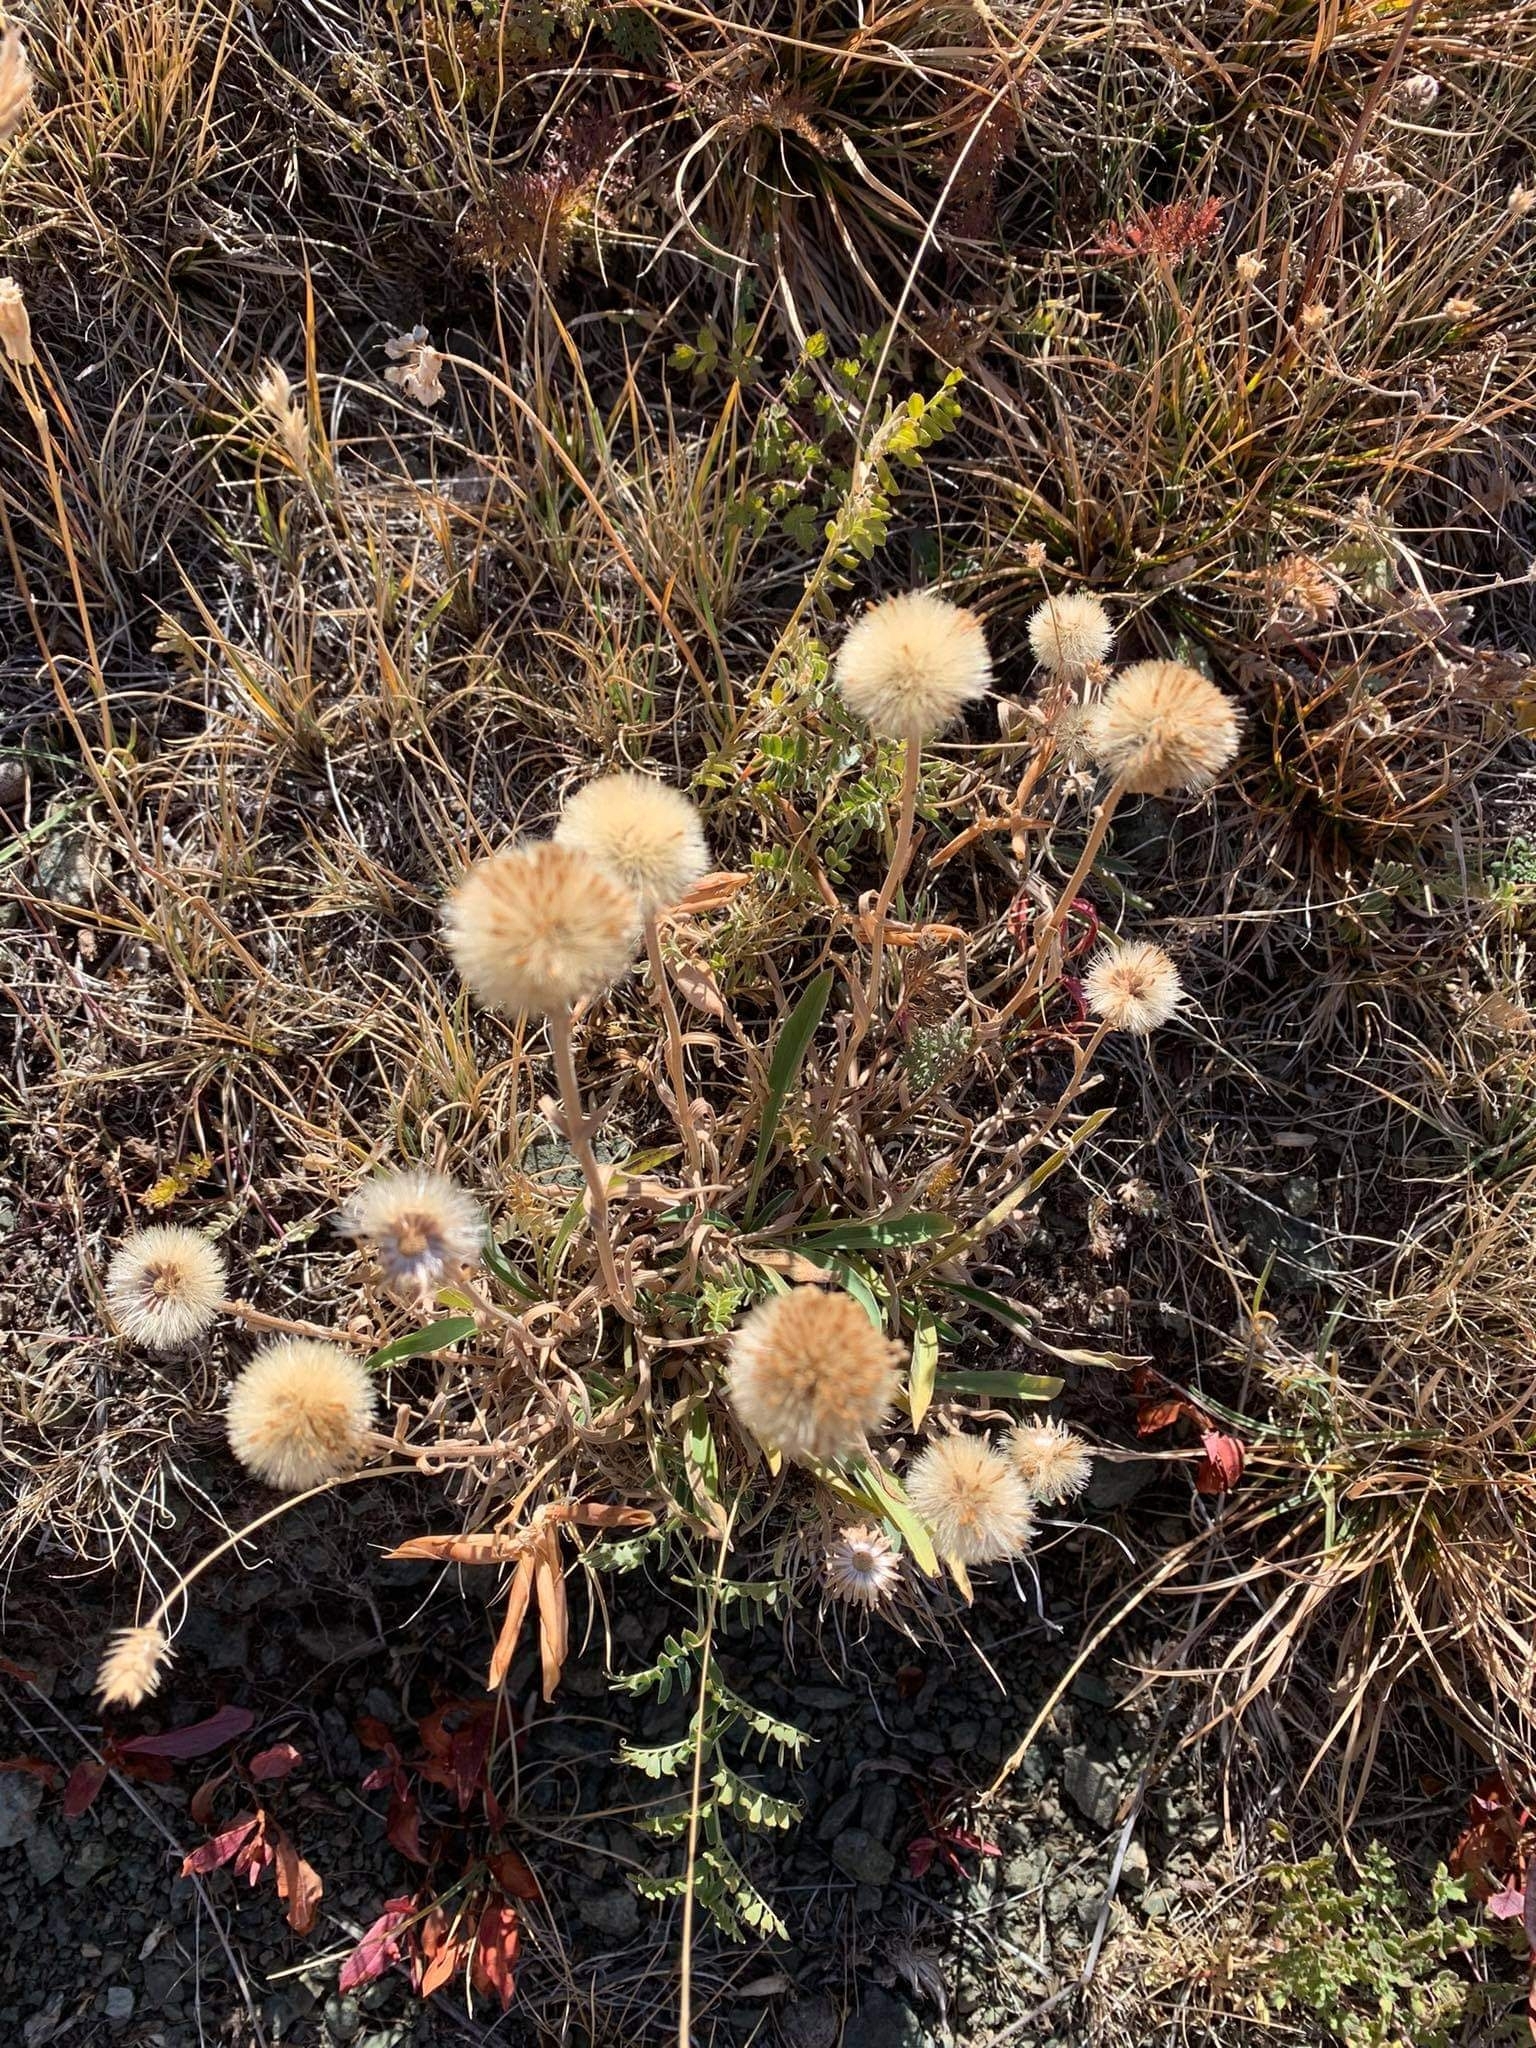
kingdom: Plantae
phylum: Tracheophyta
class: Magnoliopsida
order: Asterales
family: Asteraceae
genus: Heteropappus
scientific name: Heteropappus altaicus
